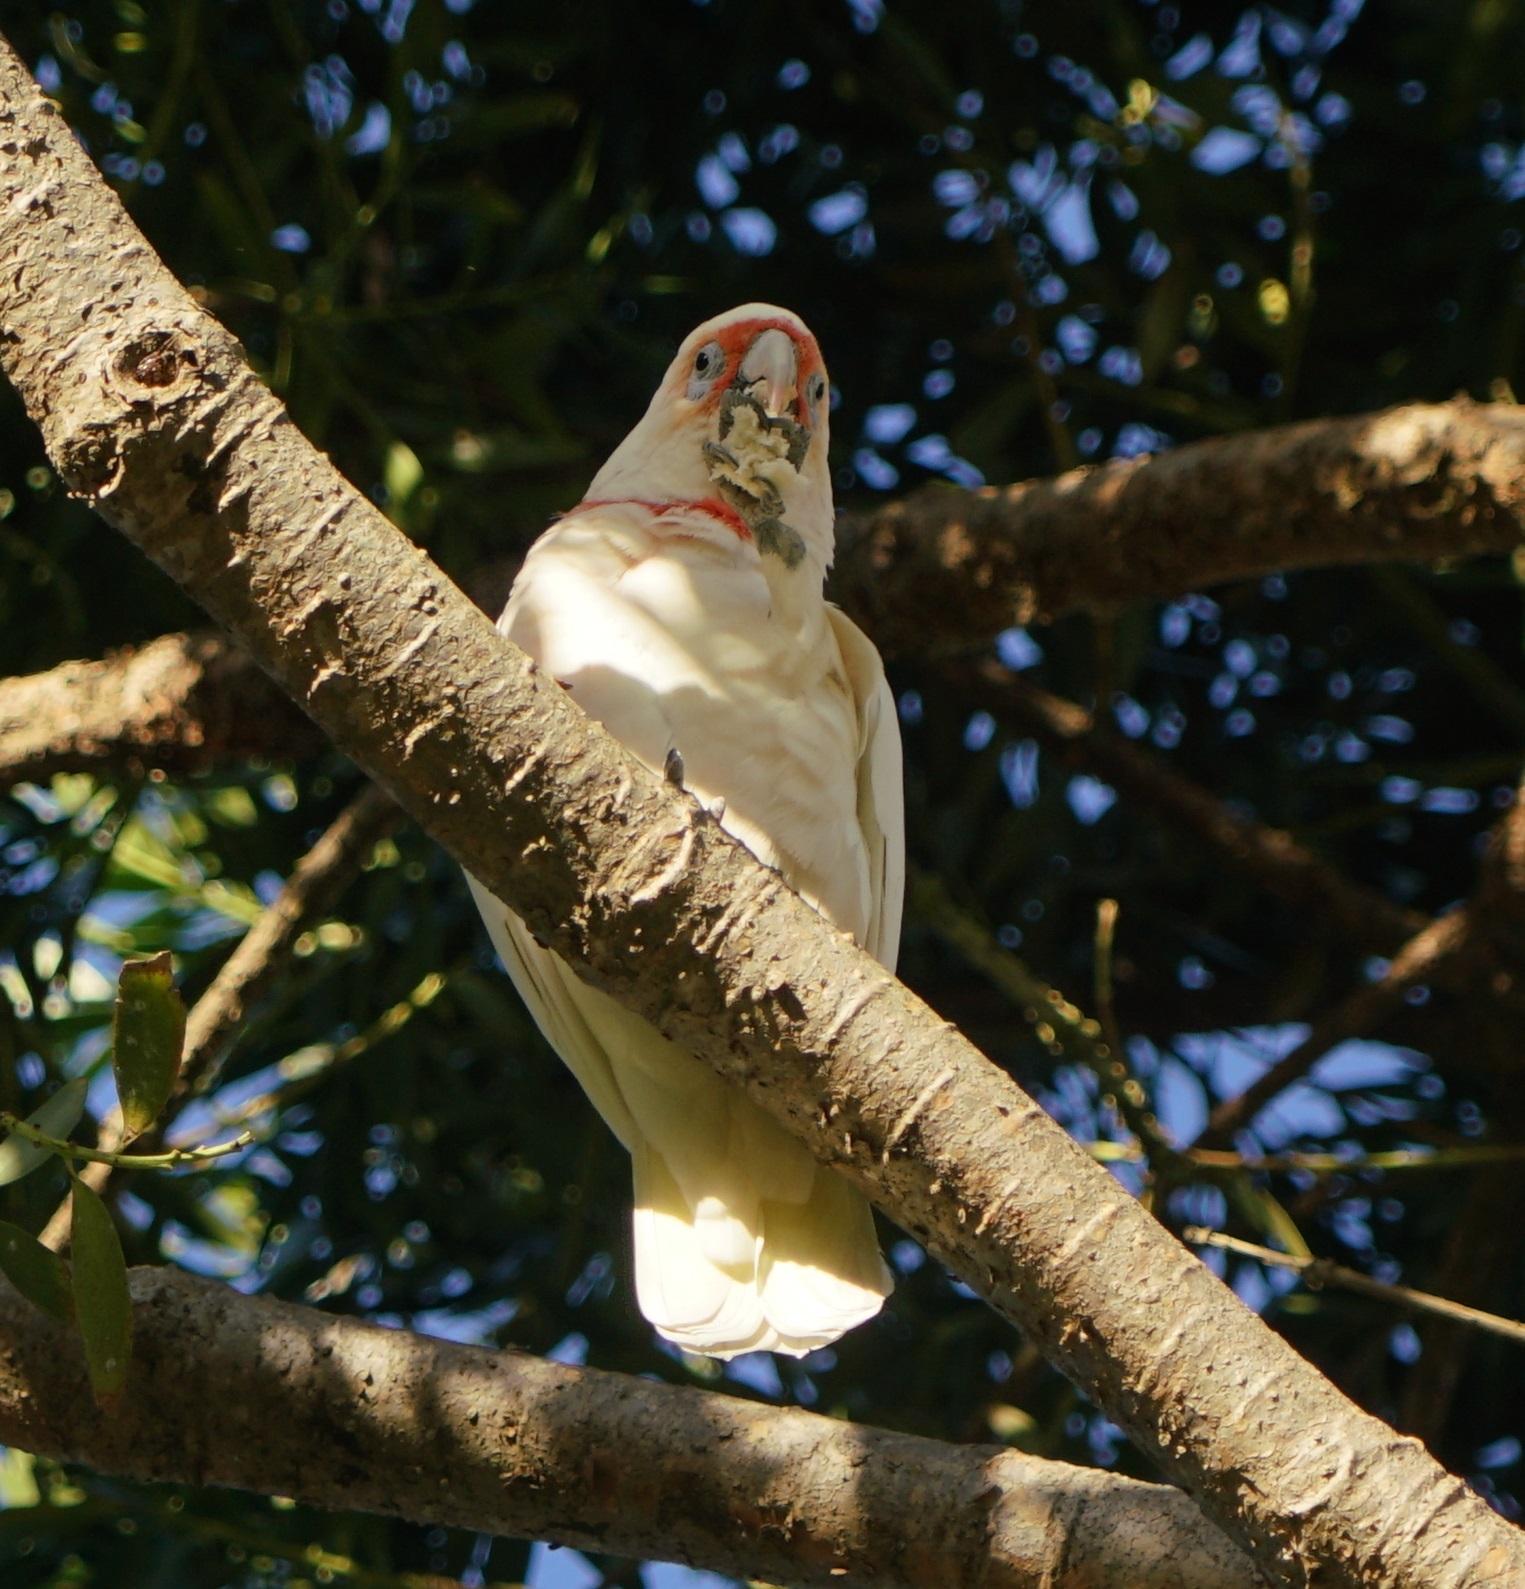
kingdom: Animalia
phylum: Chordata
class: Aves
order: Psittaciformes
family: Psittacidae
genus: Cacatua
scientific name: Cacatua tenuirostris
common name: Long-billed corella
